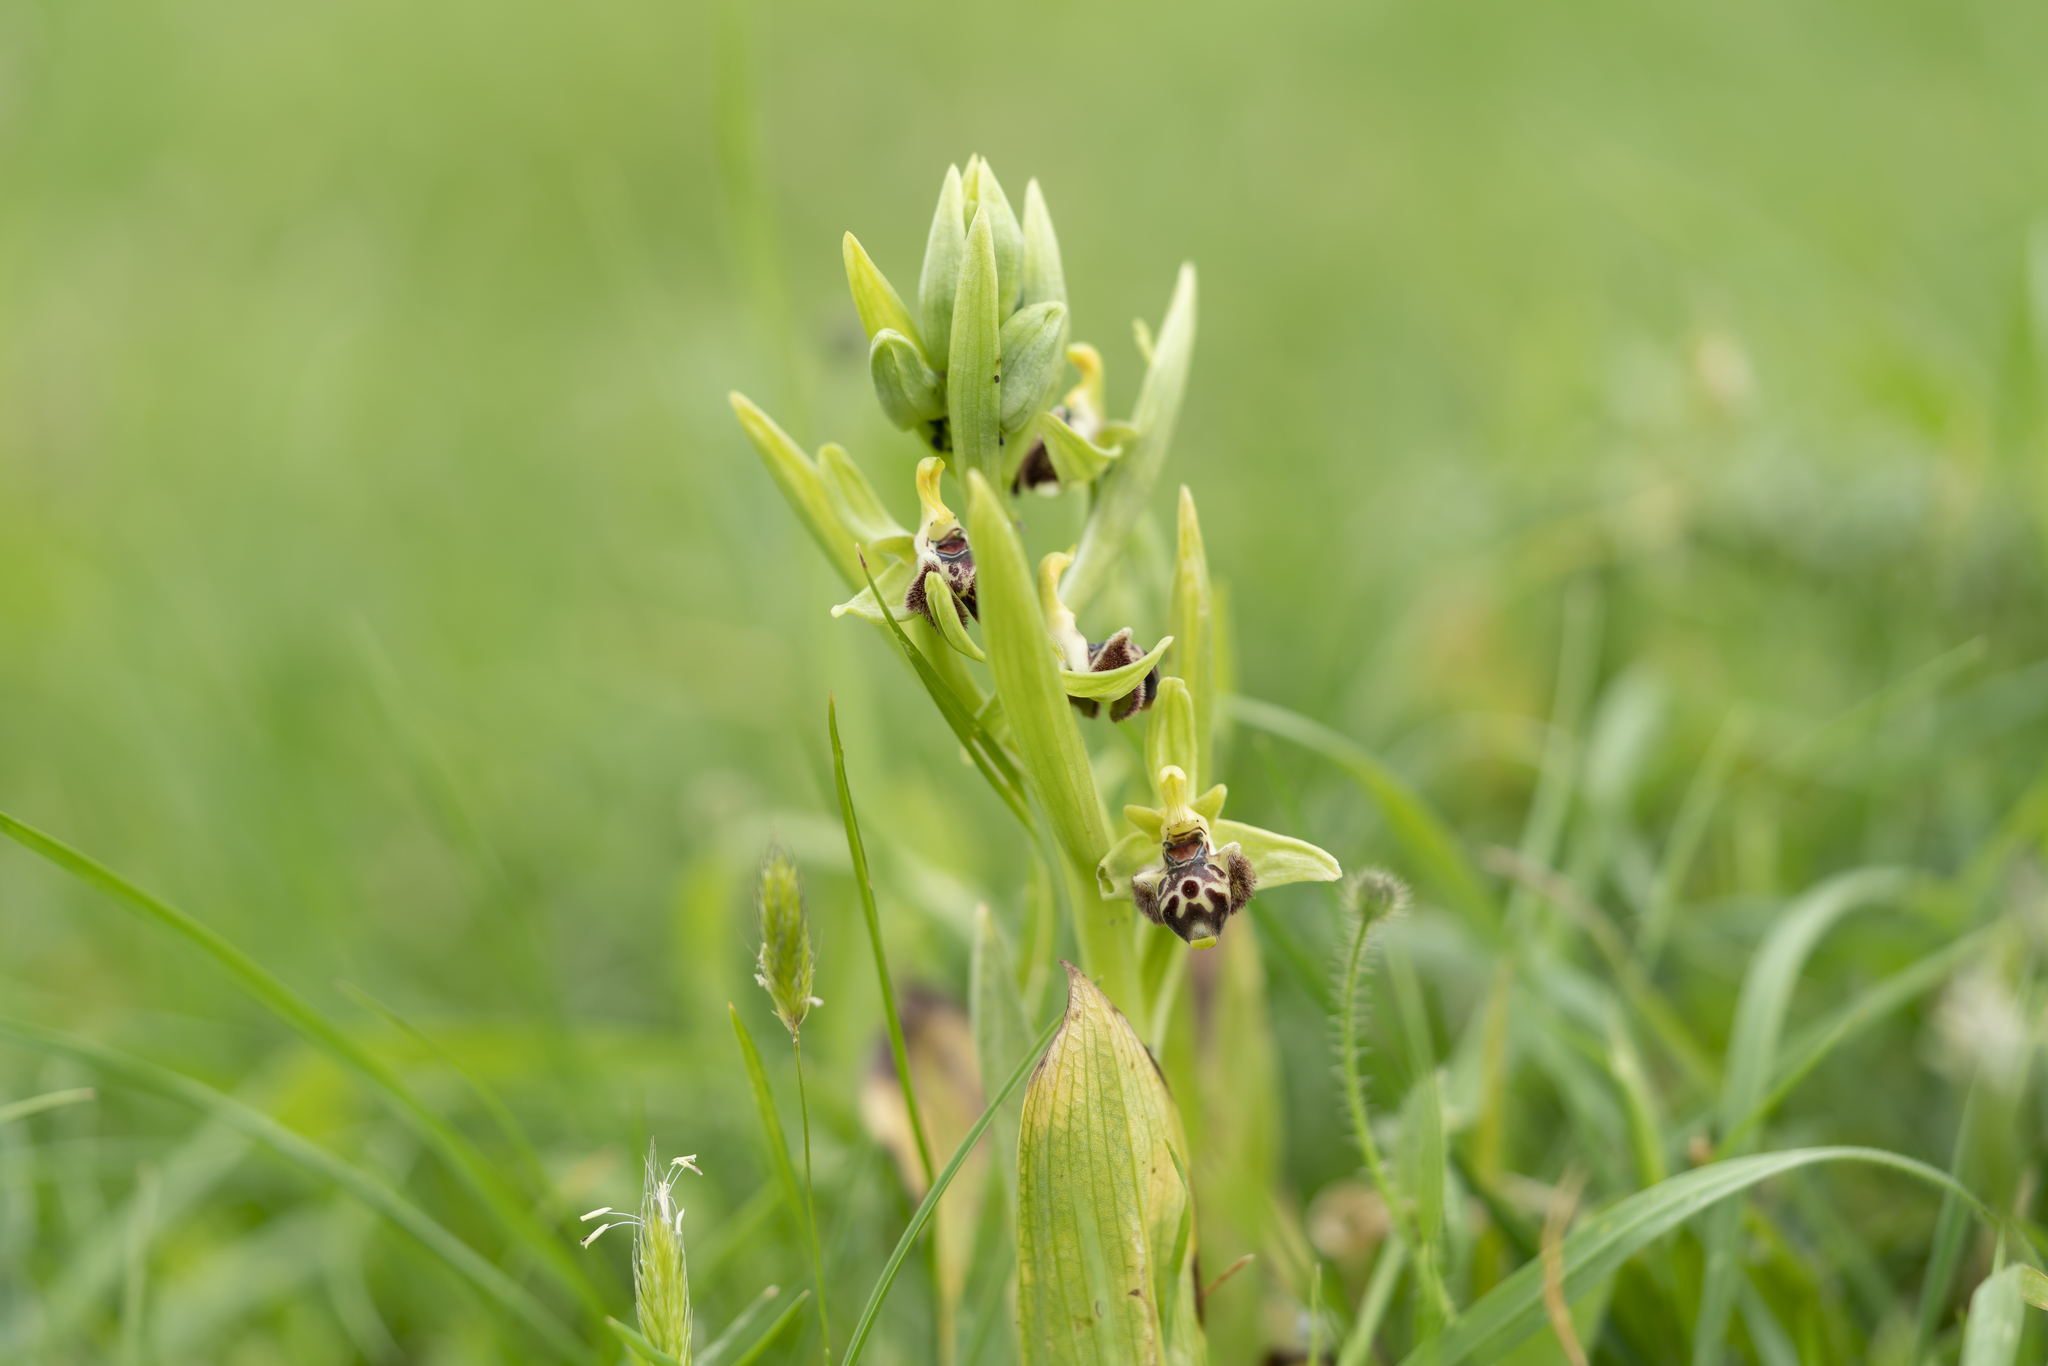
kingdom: Plantae
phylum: Tracheophyta
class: Liliopsida
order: Asparagales
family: Orchidaceae
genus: Ophrys
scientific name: Ophrys scolopax
